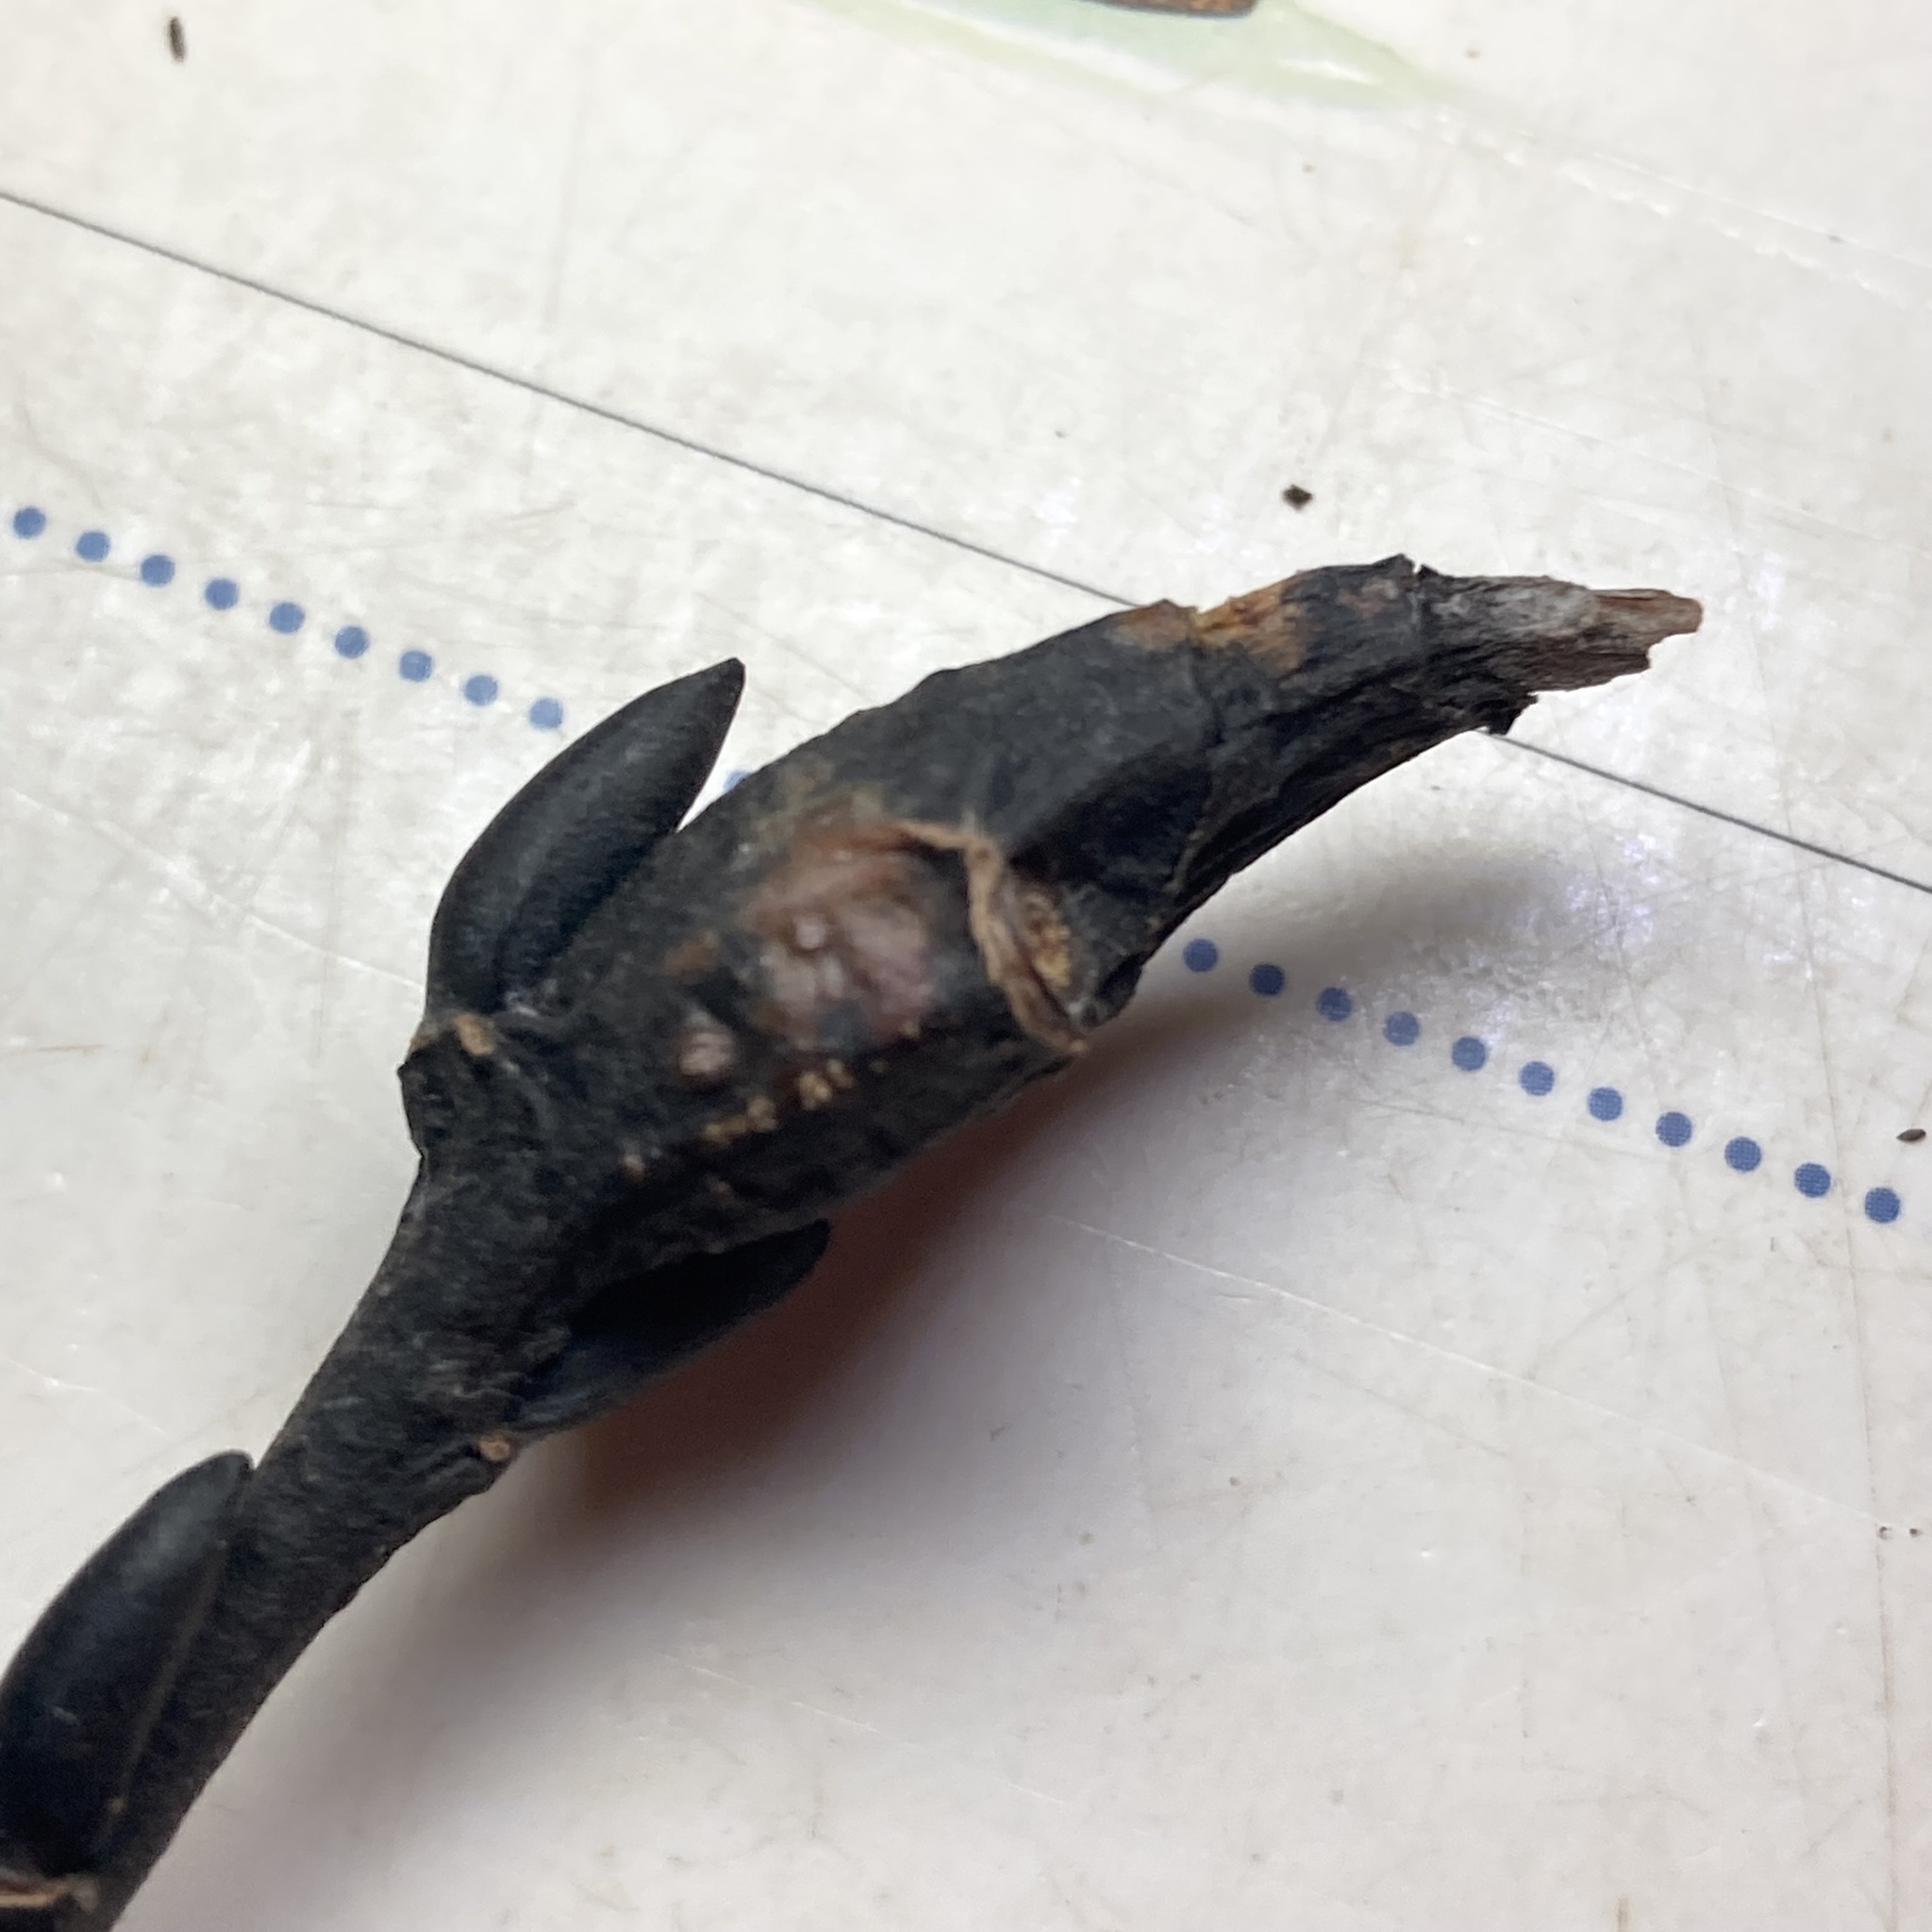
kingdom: Animalia
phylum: Arthropoda
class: Insecta
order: Diptera
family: Cecidomyiidae
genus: Thecodiplosis
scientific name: Thecodiplosis pinirigidae
